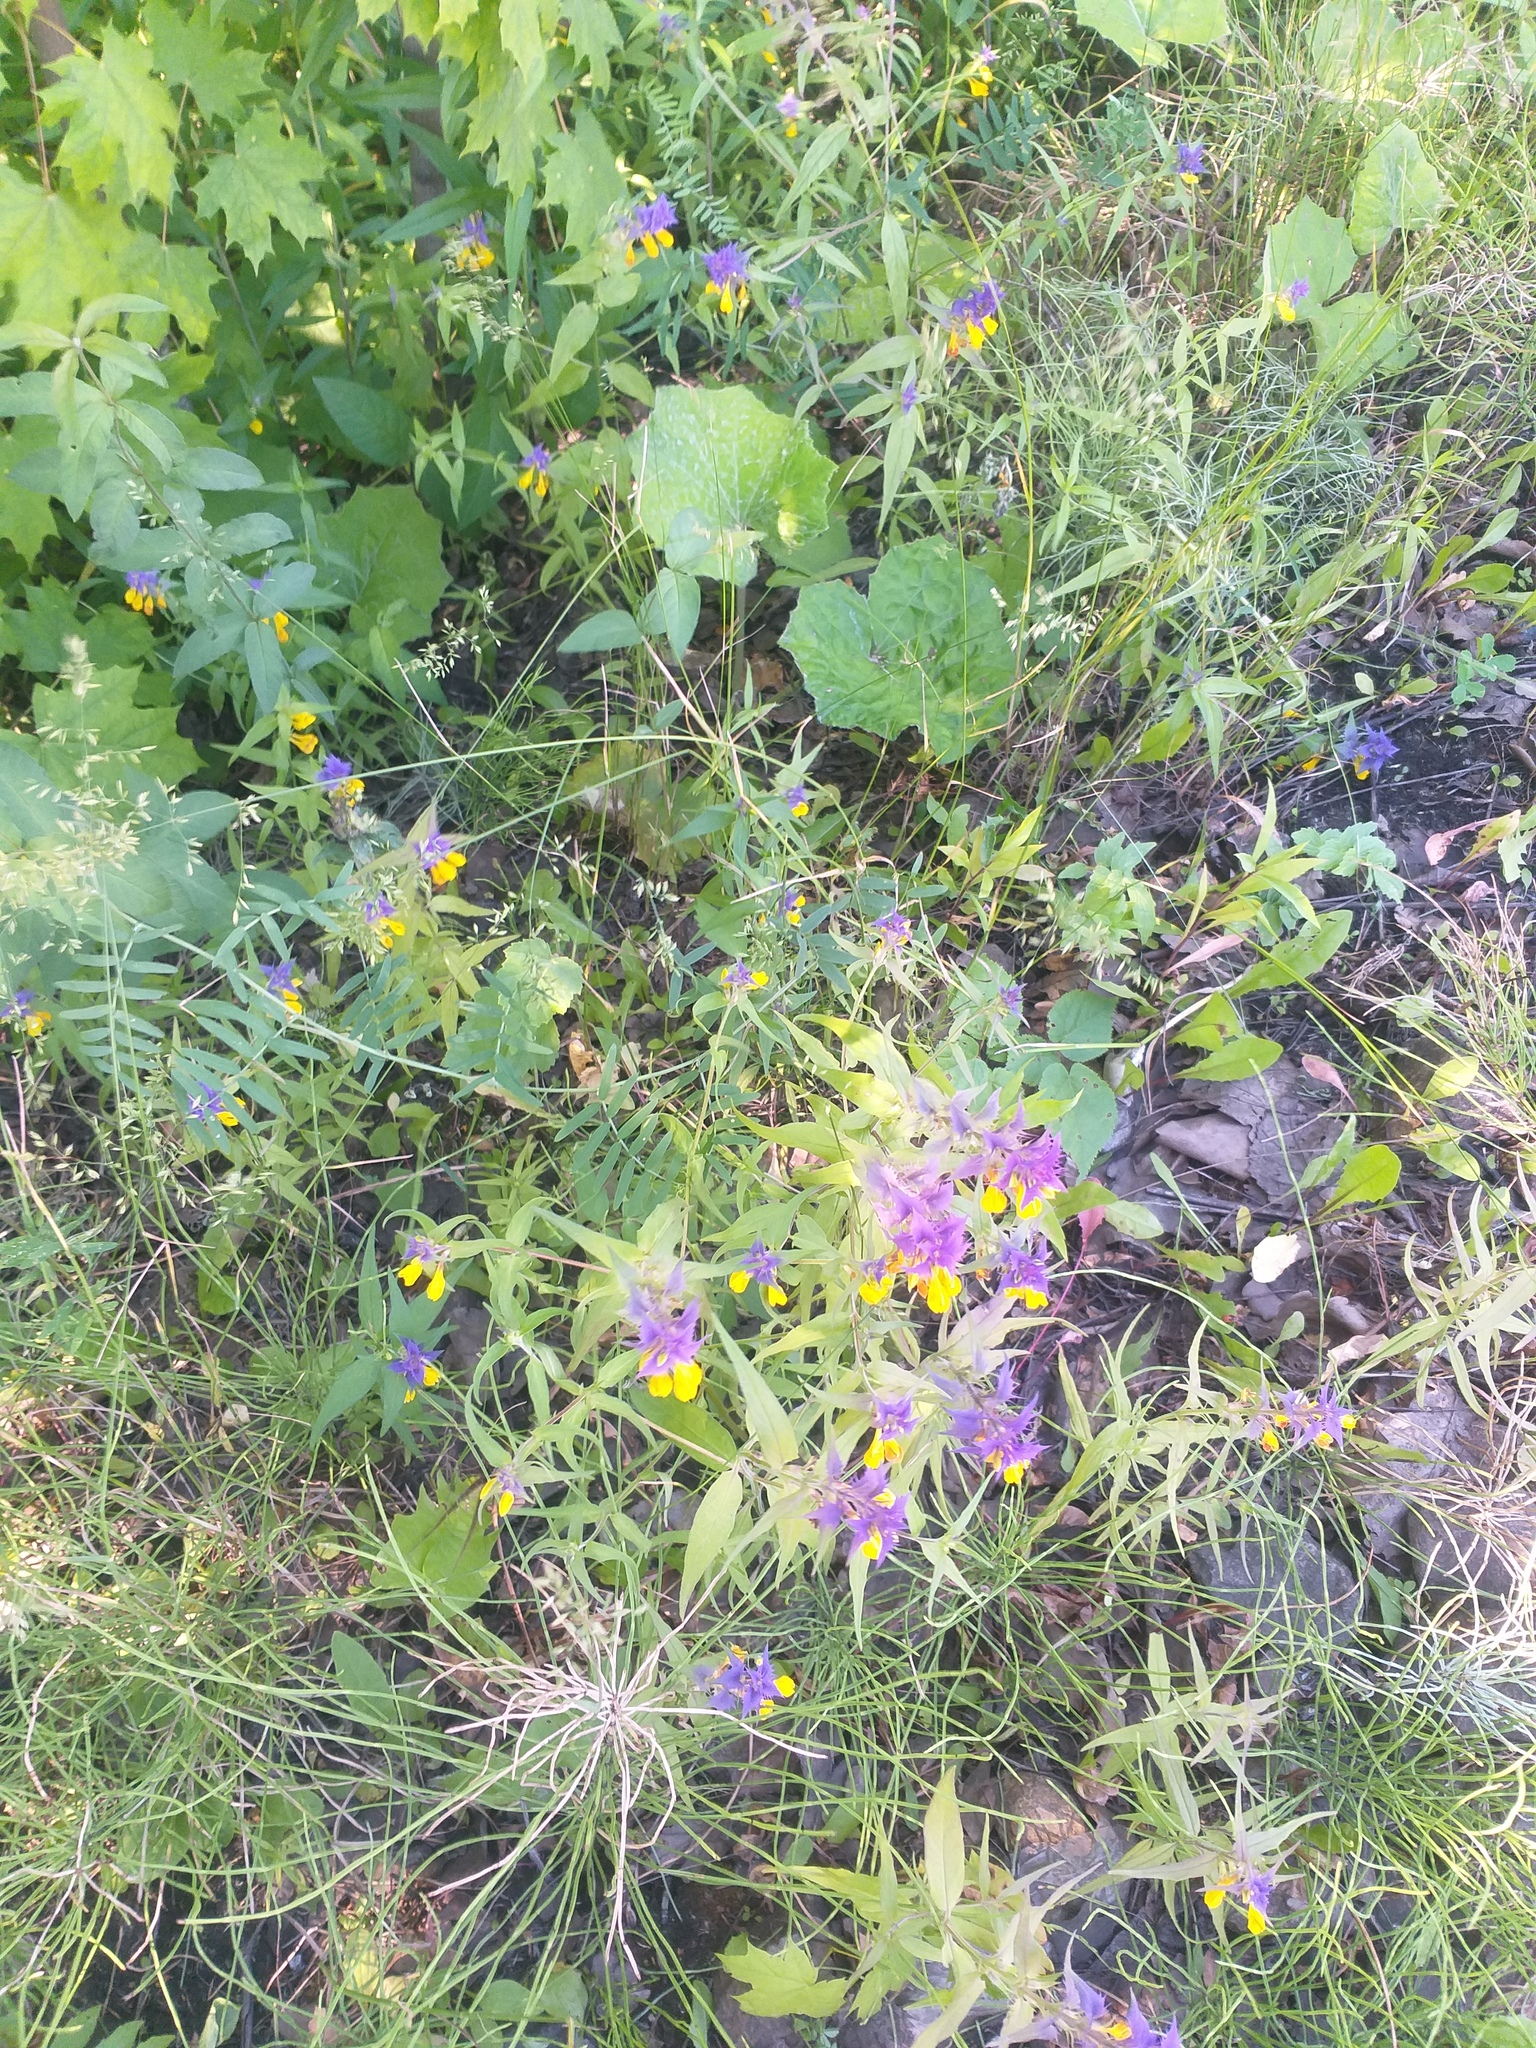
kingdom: Plantae
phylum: Tracheophyta
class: Magnoliopsida
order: Lamiales
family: Orobanchaceae
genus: Melampyrum
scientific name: Melampyrum nemorosum
